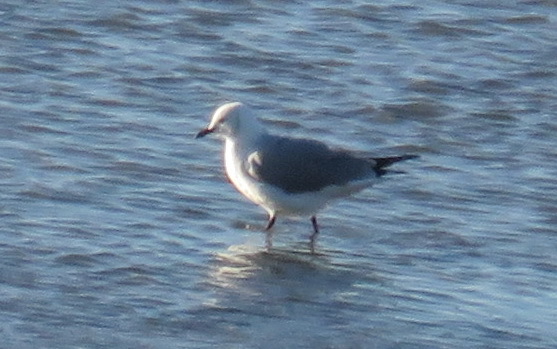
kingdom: Animalia
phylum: Chordata
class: Aves
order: Charadriiformes
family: Laridae
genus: Chroicocephalus
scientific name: Chroicocephalus cirrocephalus
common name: Grey-headed gull
